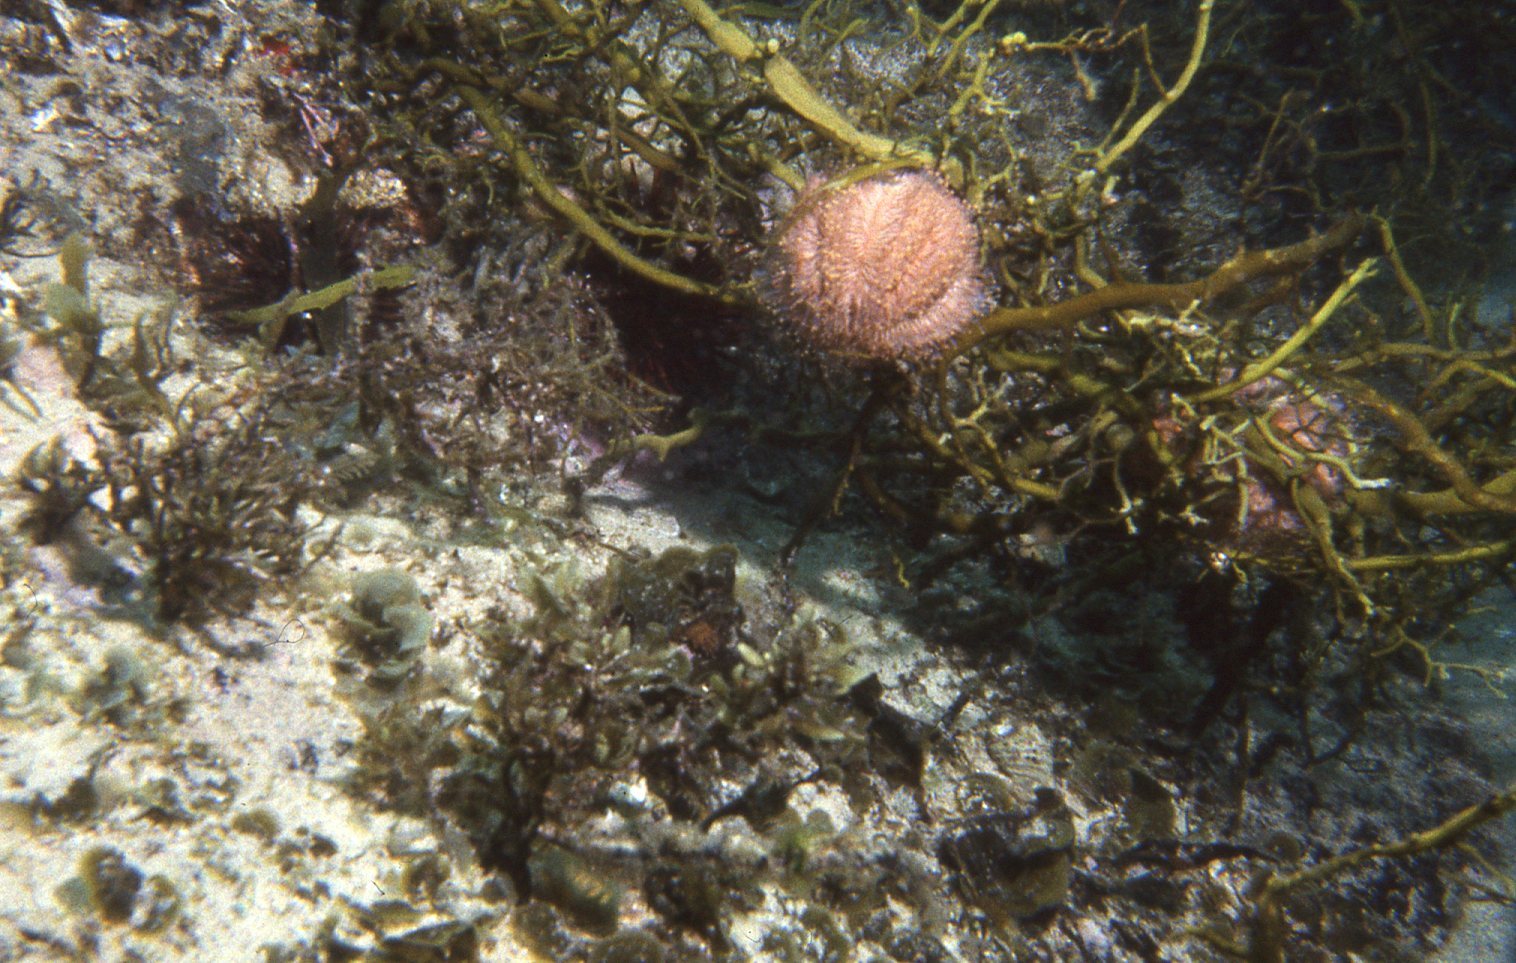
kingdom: Animalia
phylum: Echinodermata
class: Echinoidea
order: Camarodonta
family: Temnopleuridae
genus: Holopneustes
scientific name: Holopneustes purpurascens
